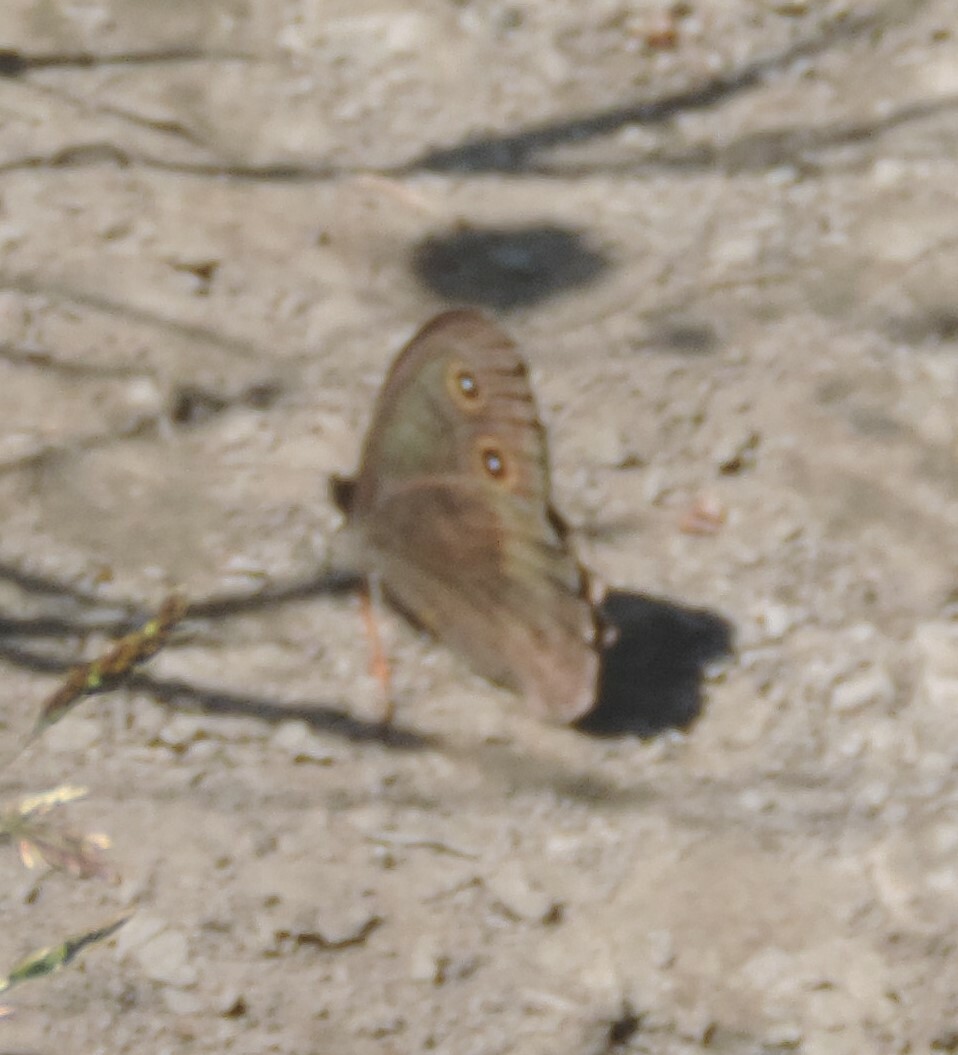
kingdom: Animalia
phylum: Arthropoda
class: Insecta
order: Lepidoptera
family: Nymphalidae
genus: Cercyonis
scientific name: Cercyonis pegala
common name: Common wood-nymph
